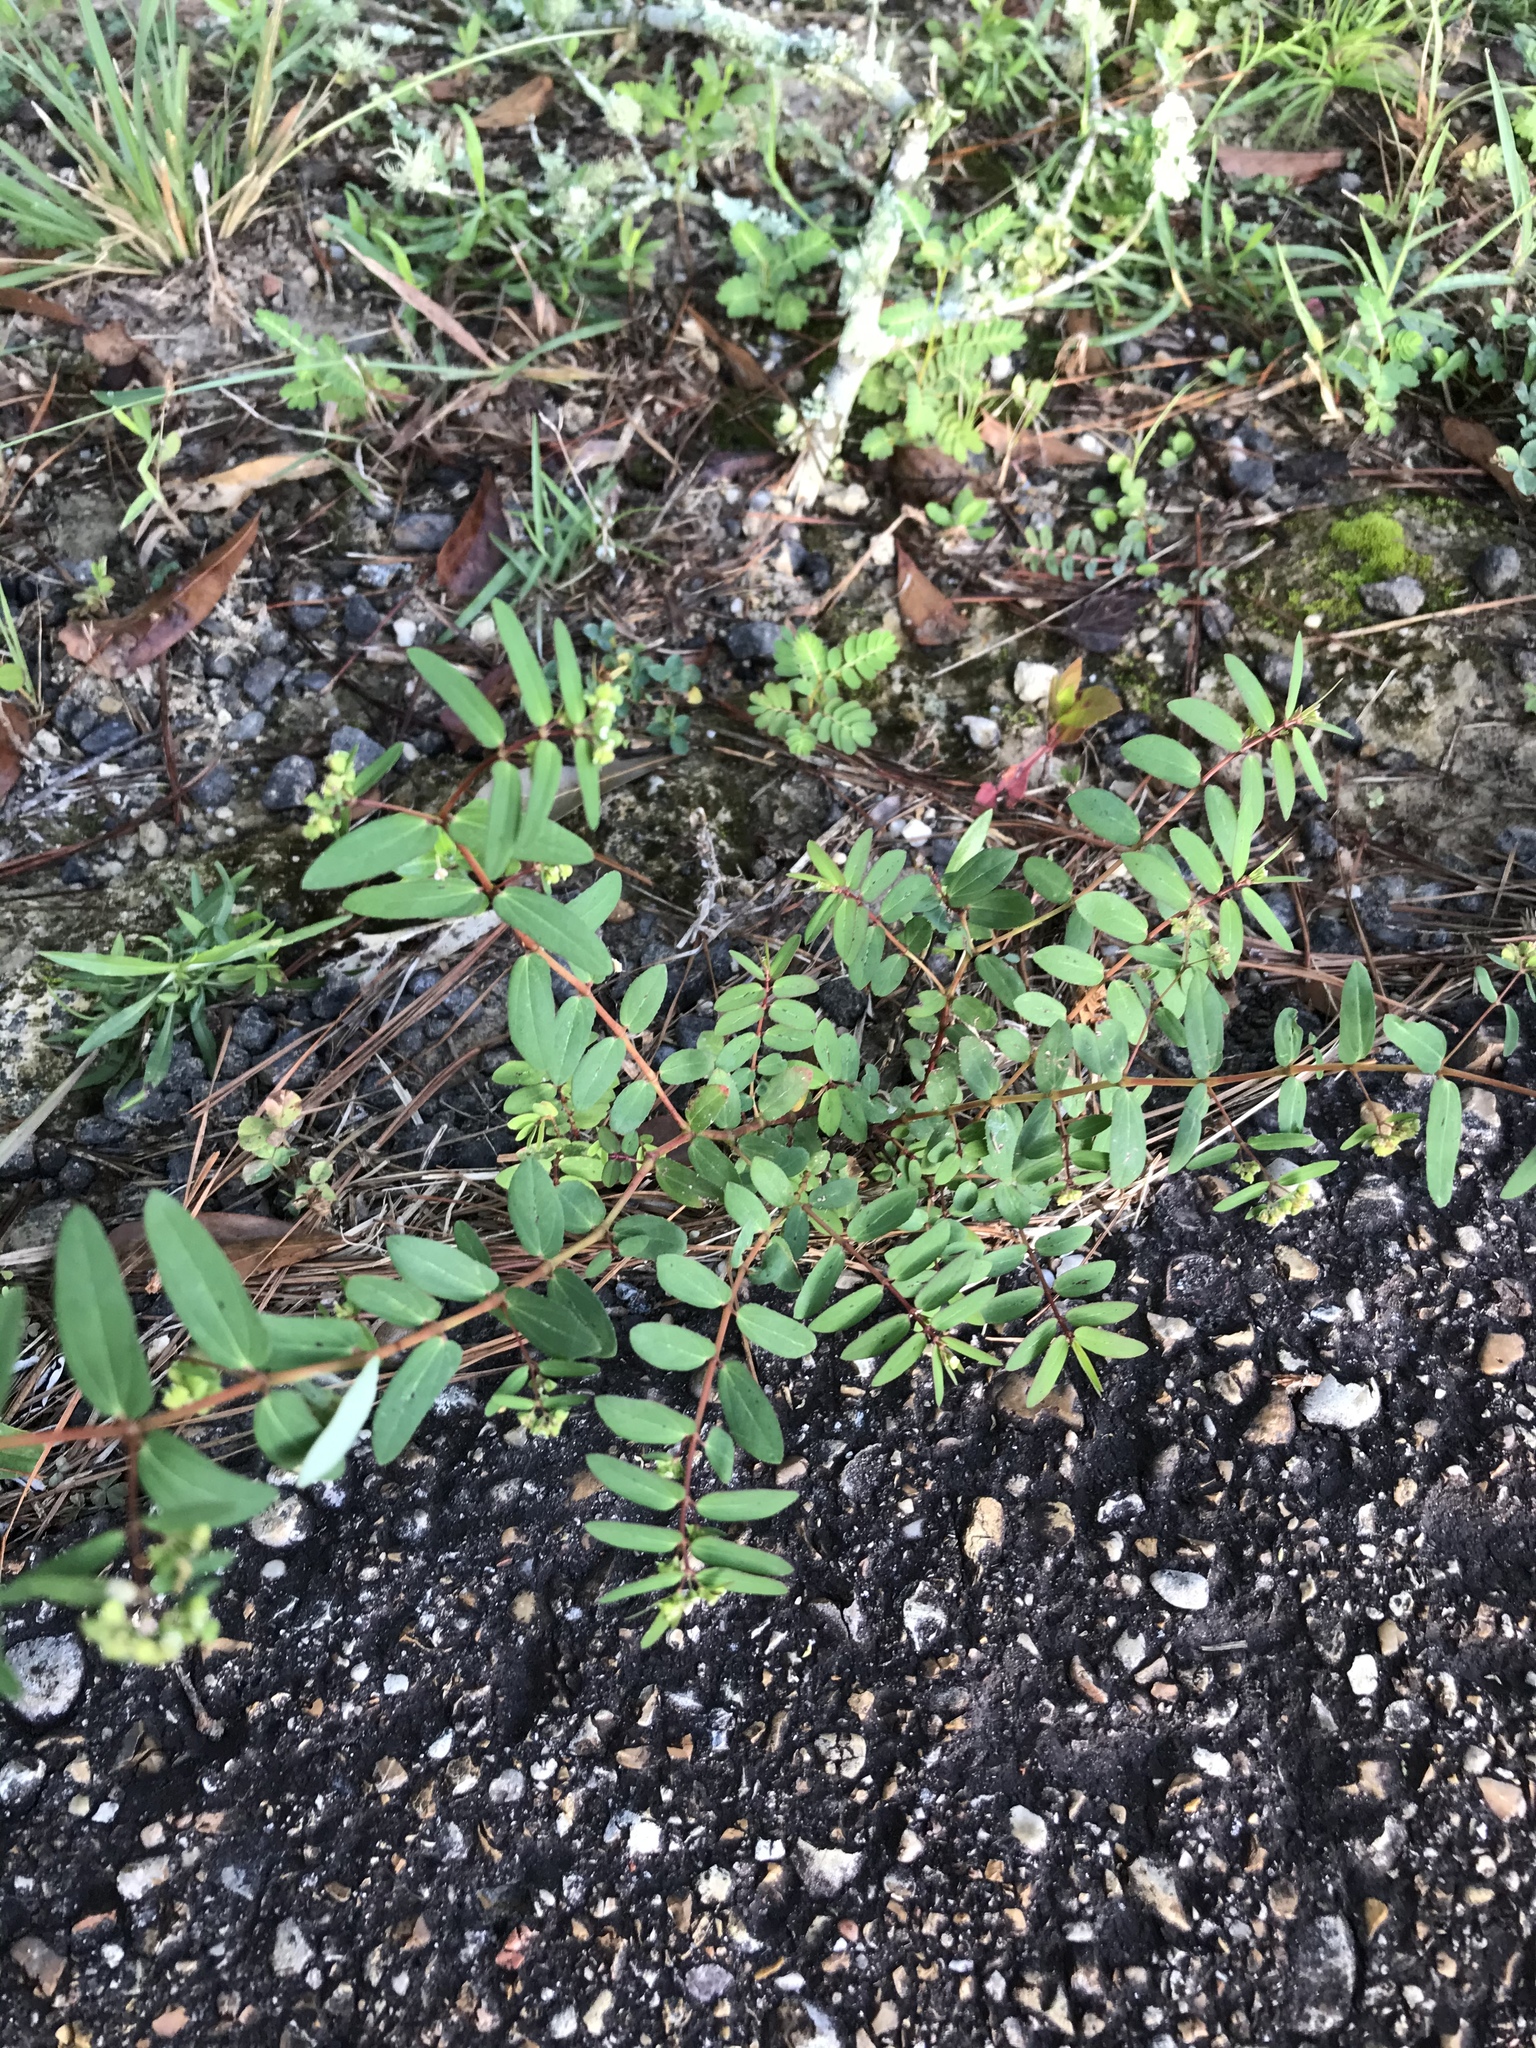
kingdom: Plantae
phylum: Tracheophyta
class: Magnoliopsida
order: Malpighiales
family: Euphorbiaceae
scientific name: Euphorbiaceae
